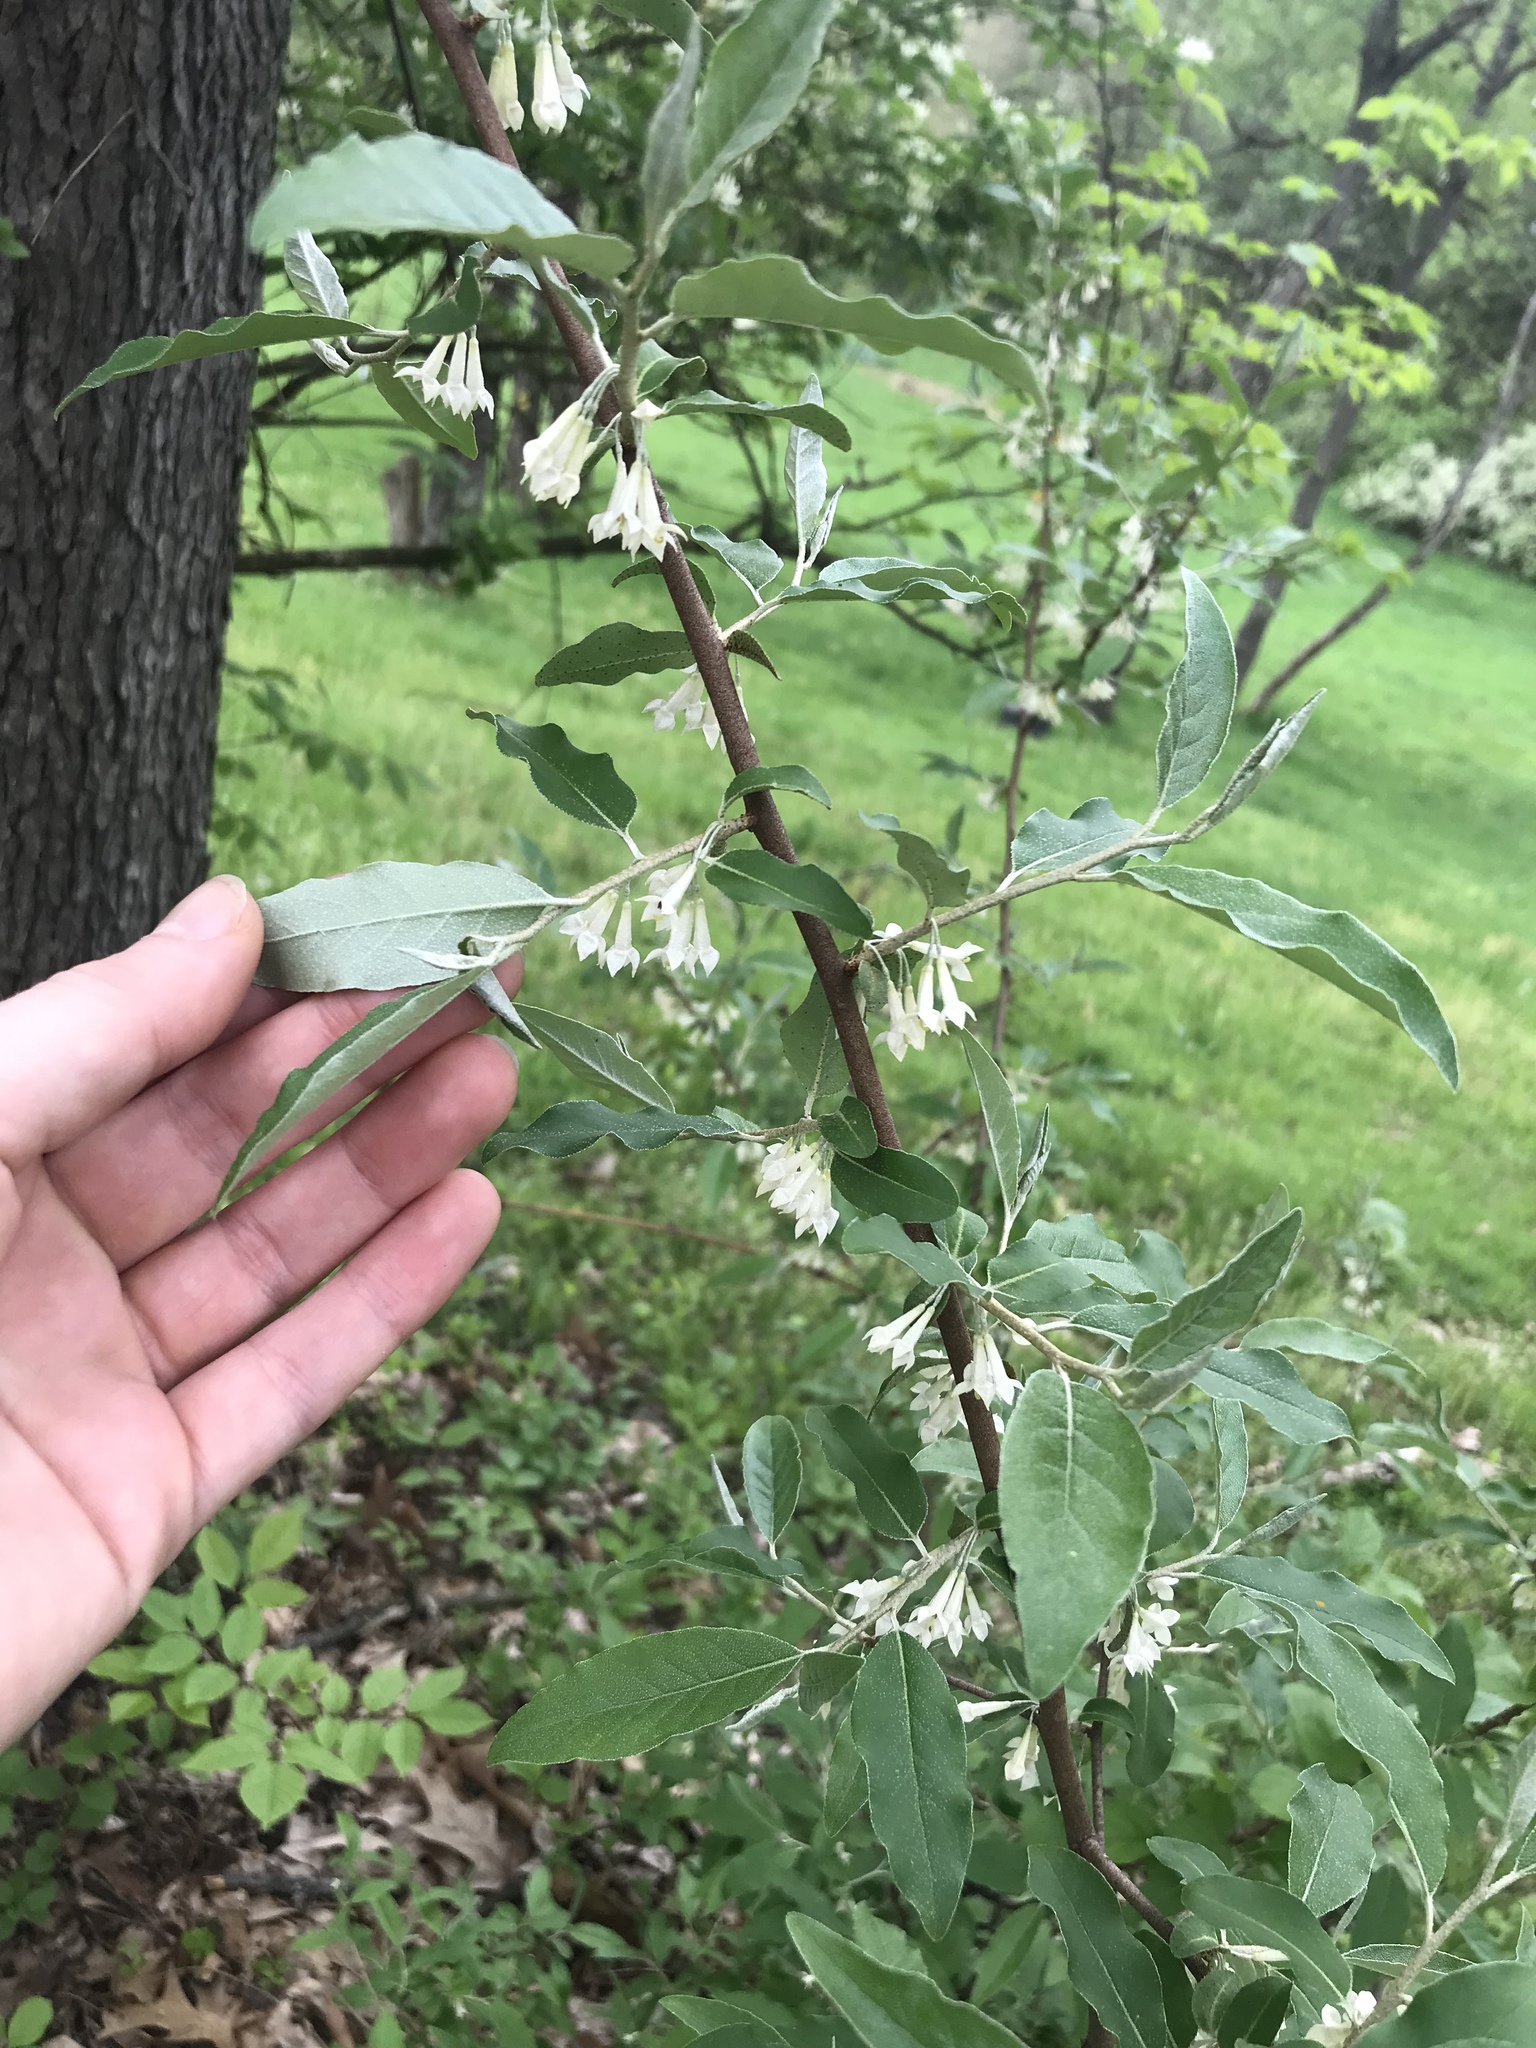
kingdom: Plantae
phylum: Tracheophyta
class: Magnoliopsida
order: Rosales
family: Elaeagnaceae
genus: Elaeagnus
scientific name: Elaeagnus umbellata
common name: Autumn olive
